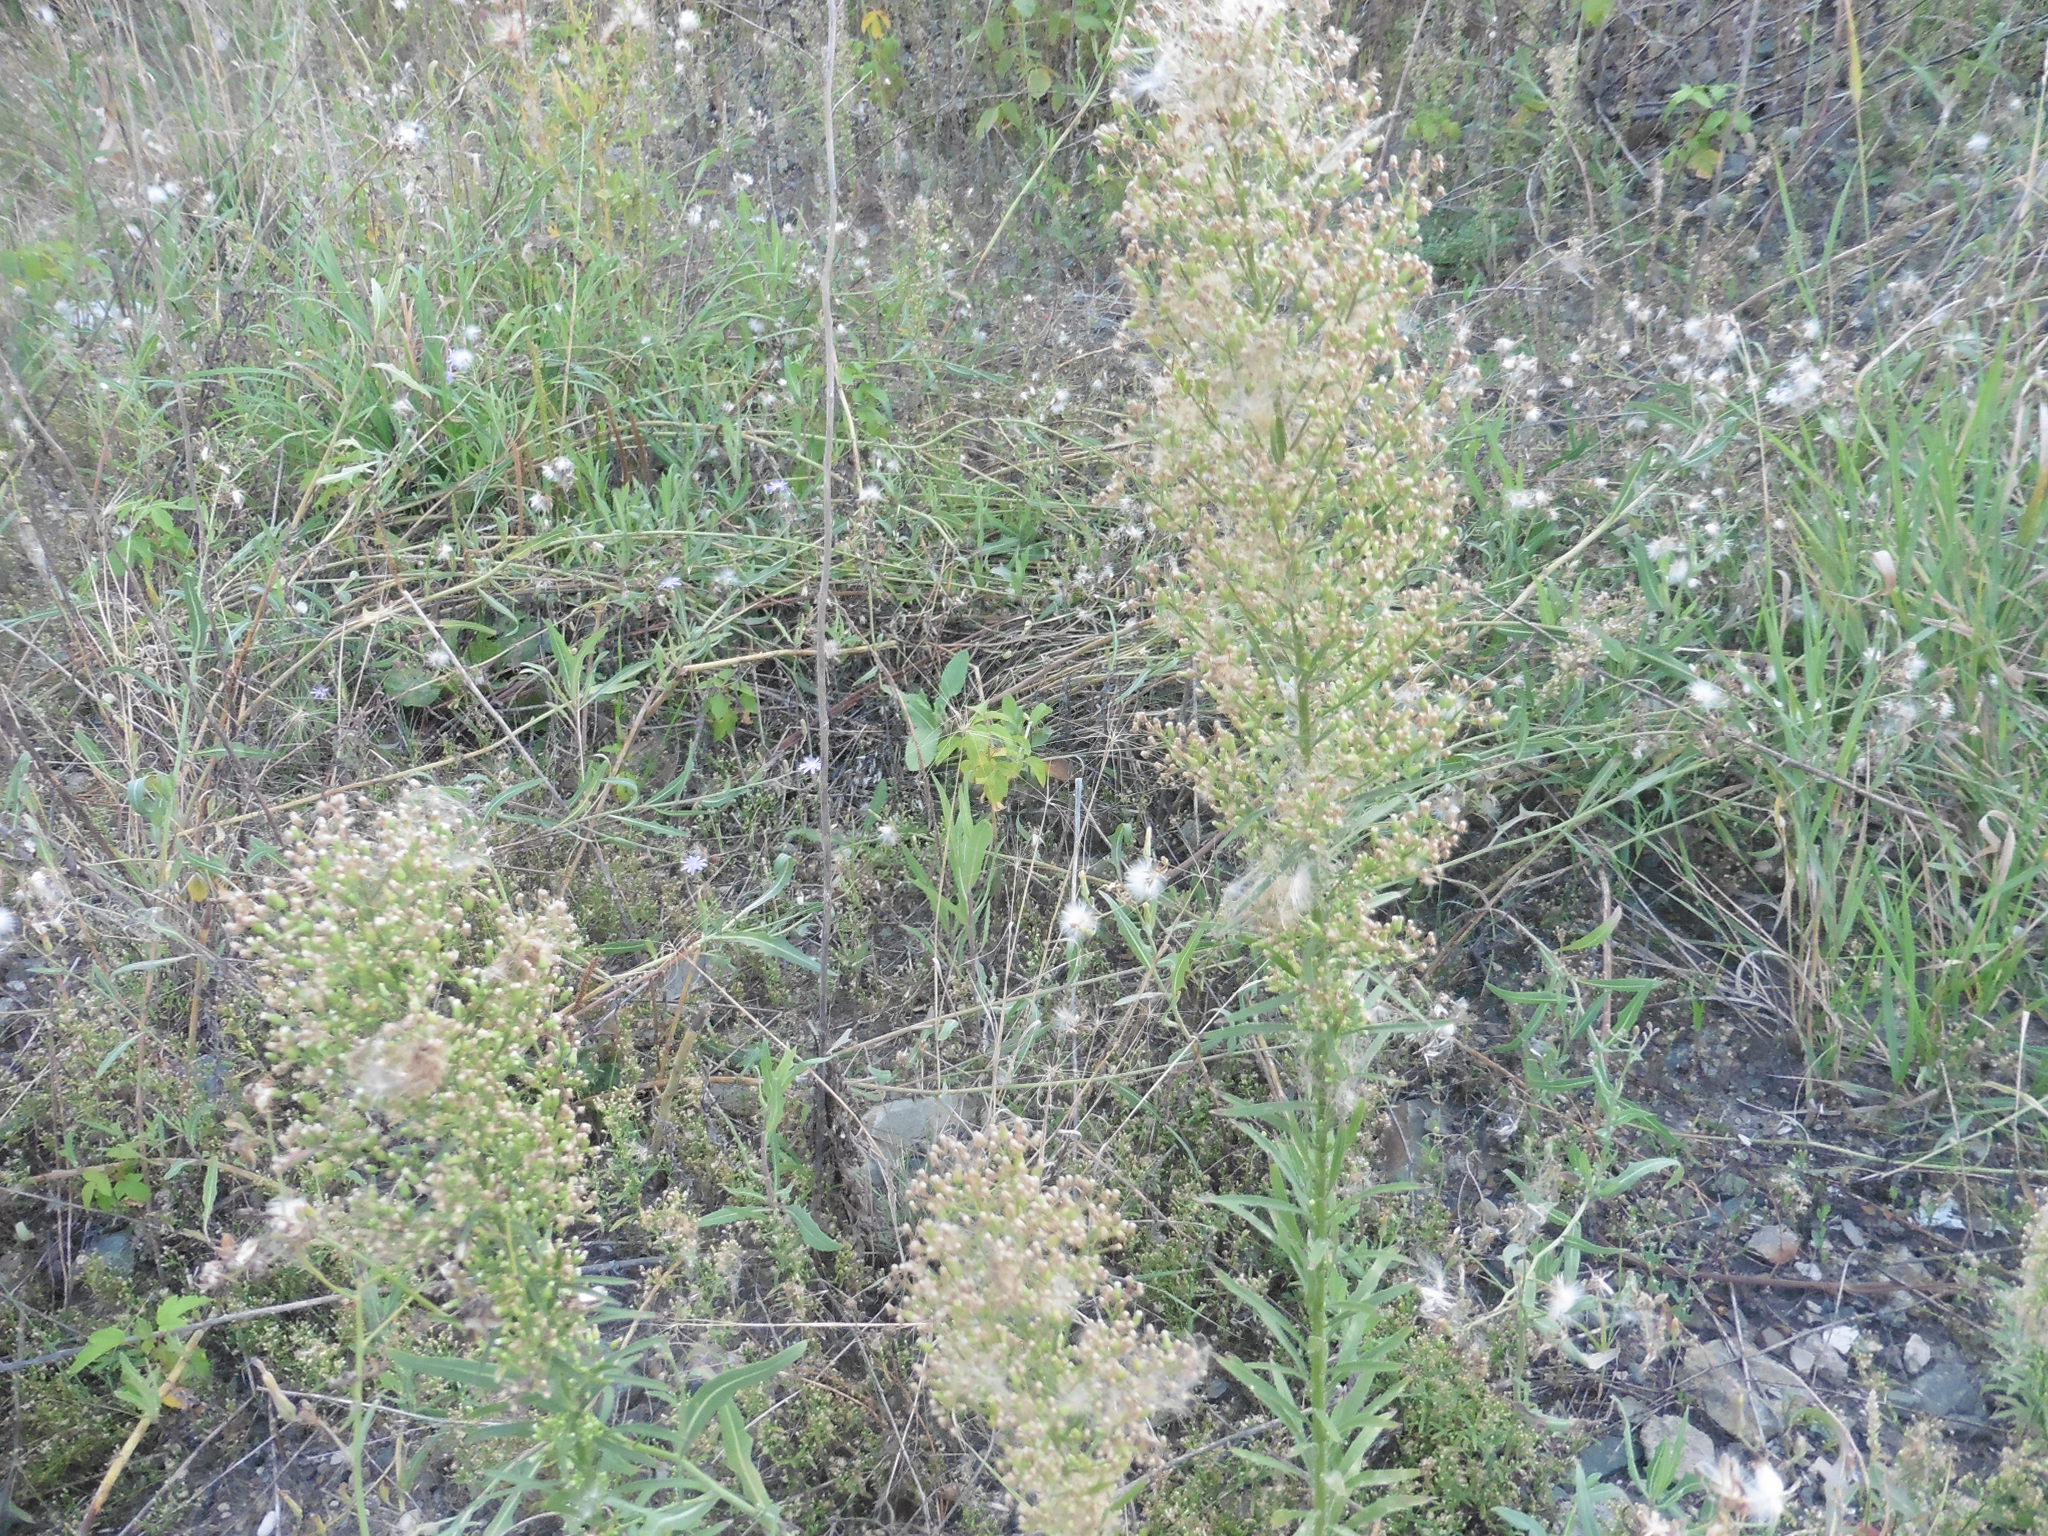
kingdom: Plantae
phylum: Tracheophyta
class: Magnoliopsida
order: Asterales
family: Asteraceae
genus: Erigeron
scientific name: Erigeron canadensis
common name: Canadian fleabane
